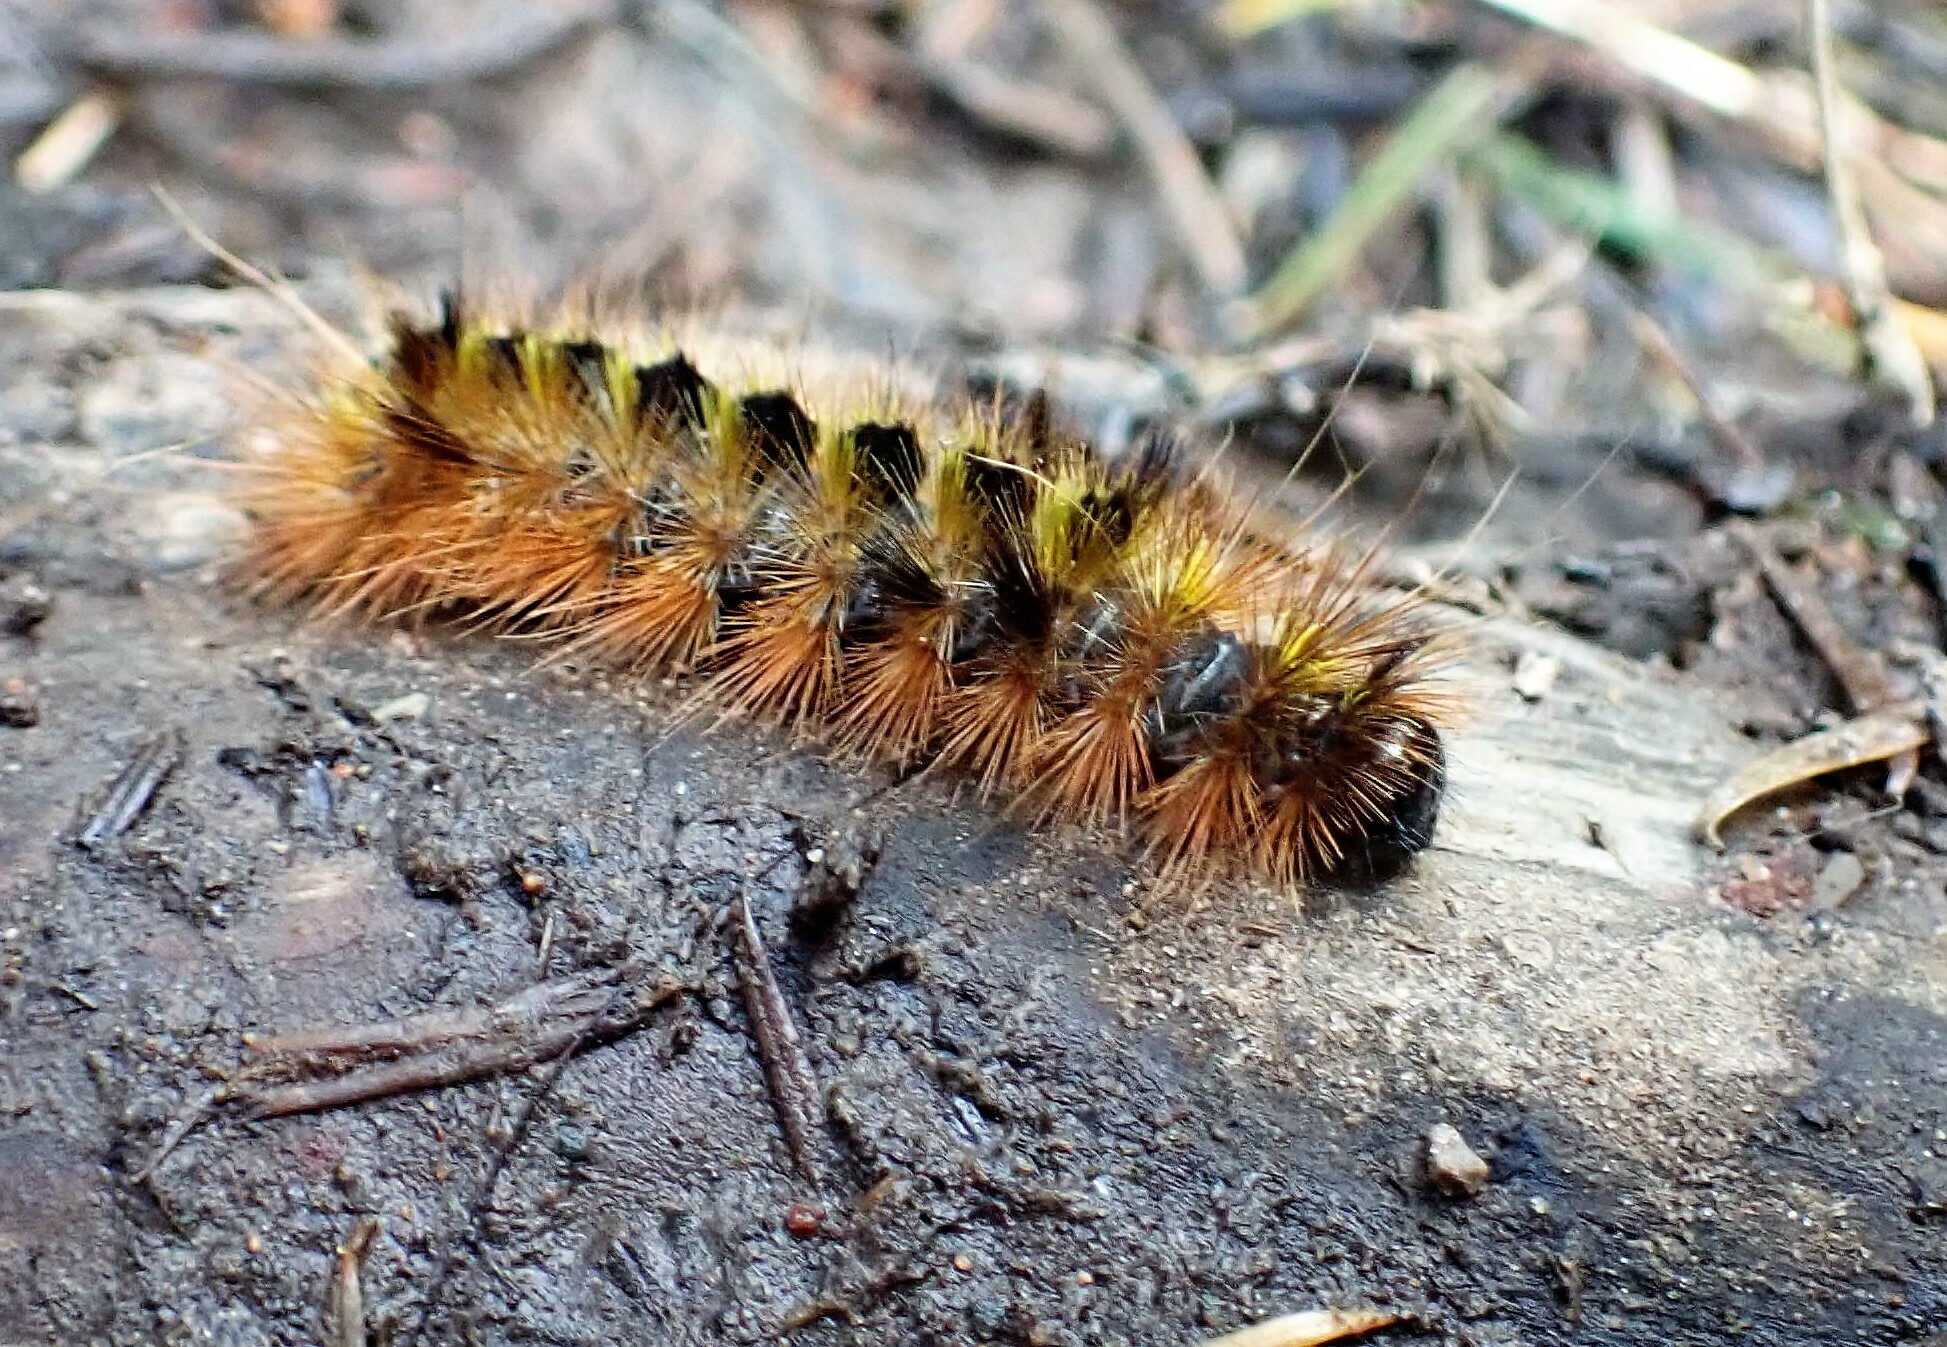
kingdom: Animalia
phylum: Arthropoda
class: Insecta
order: Lepidoptera
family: Erebidae
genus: Lophocampa
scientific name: Lophocampa argentata
